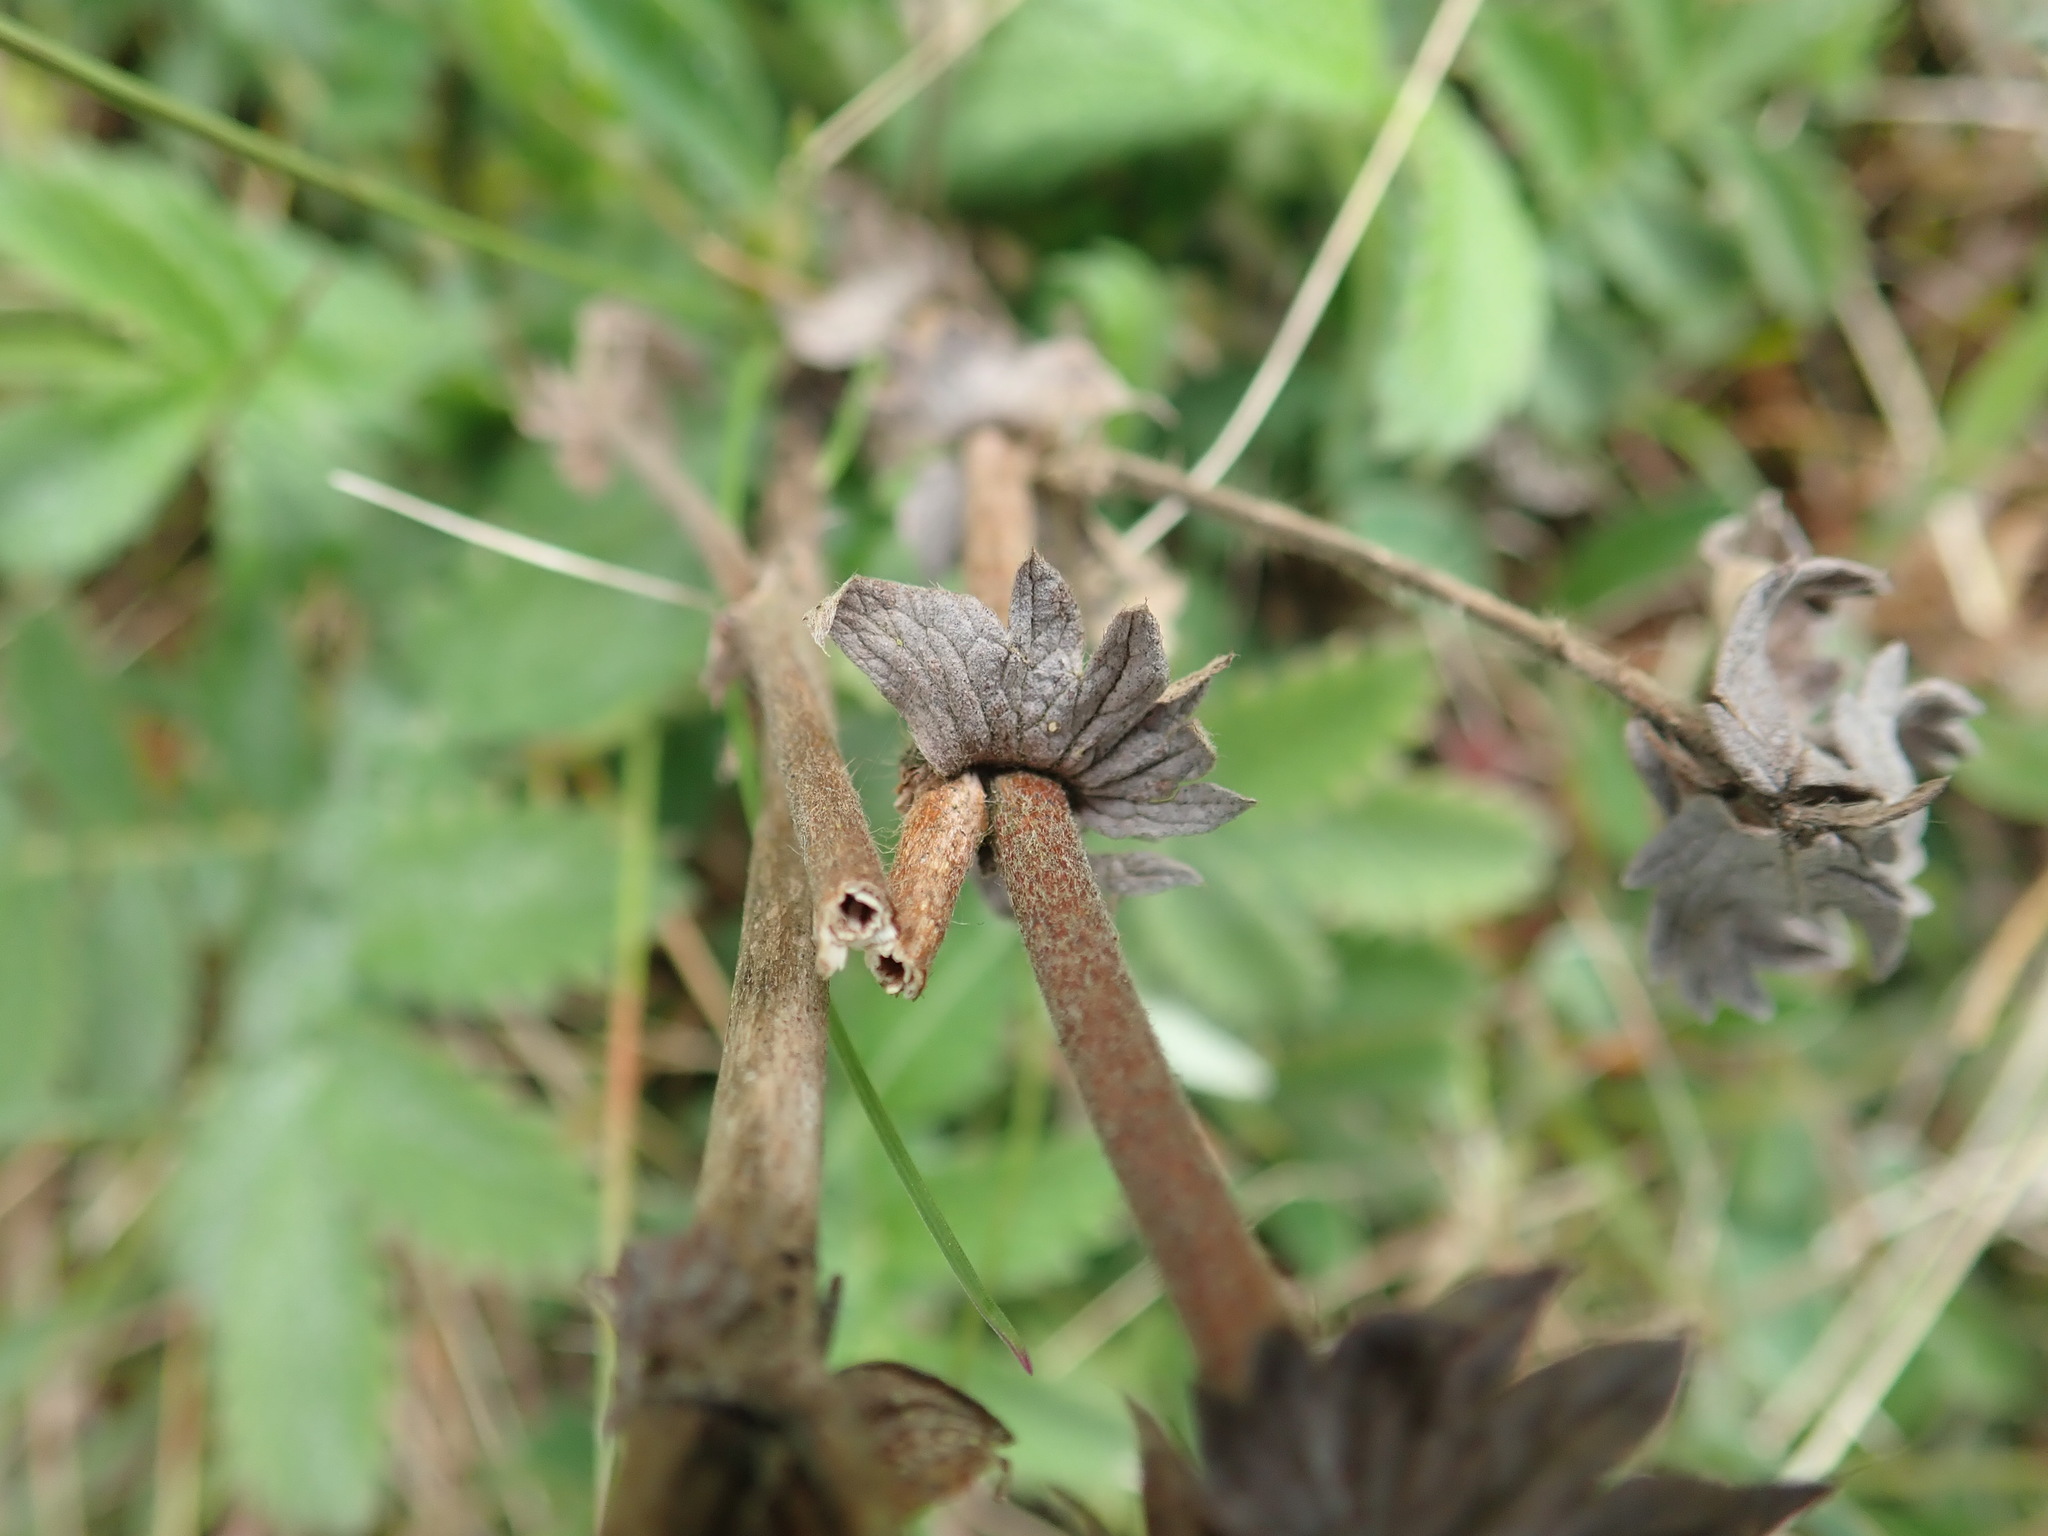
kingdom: Plantae
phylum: Tracheophyta
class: Magnoliopsida
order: Rosales
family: Rosaceae
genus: Agrimonia
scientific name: Agrimonia eupatoria
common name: Agrimony
